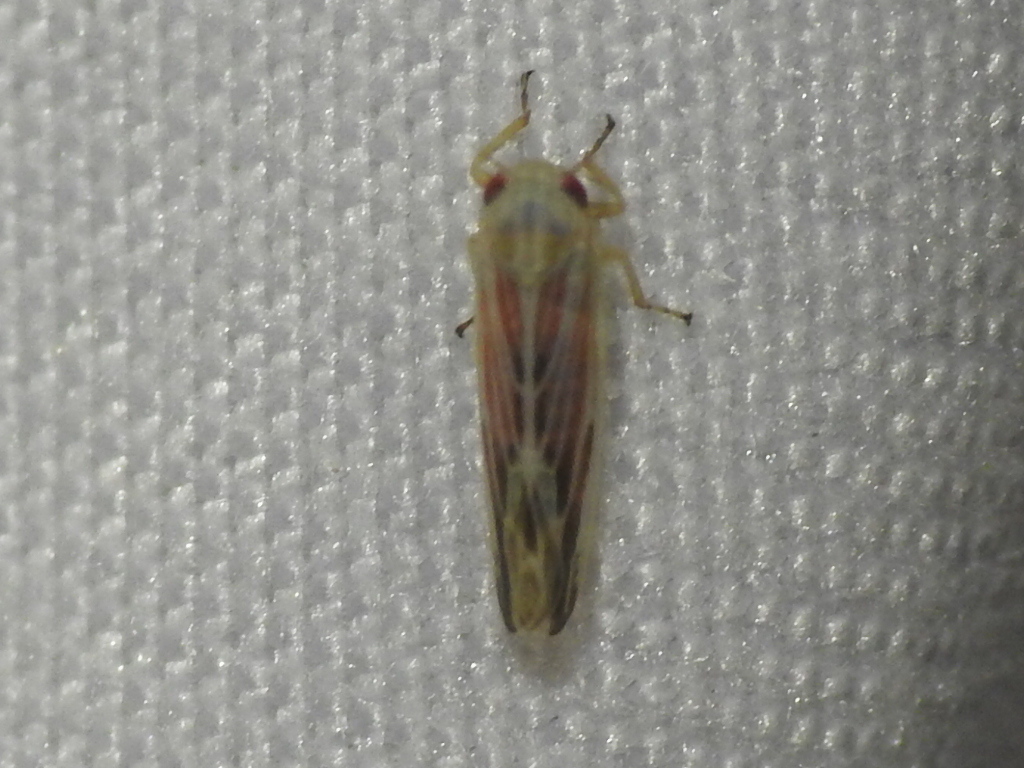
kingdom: Animalia
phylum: Arthropoda
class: Insecta
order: Hemiptera
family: Cicadellidae
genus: Balclutha
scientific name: Balclutha rubrostriata
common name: Red-streaked leafhopper
